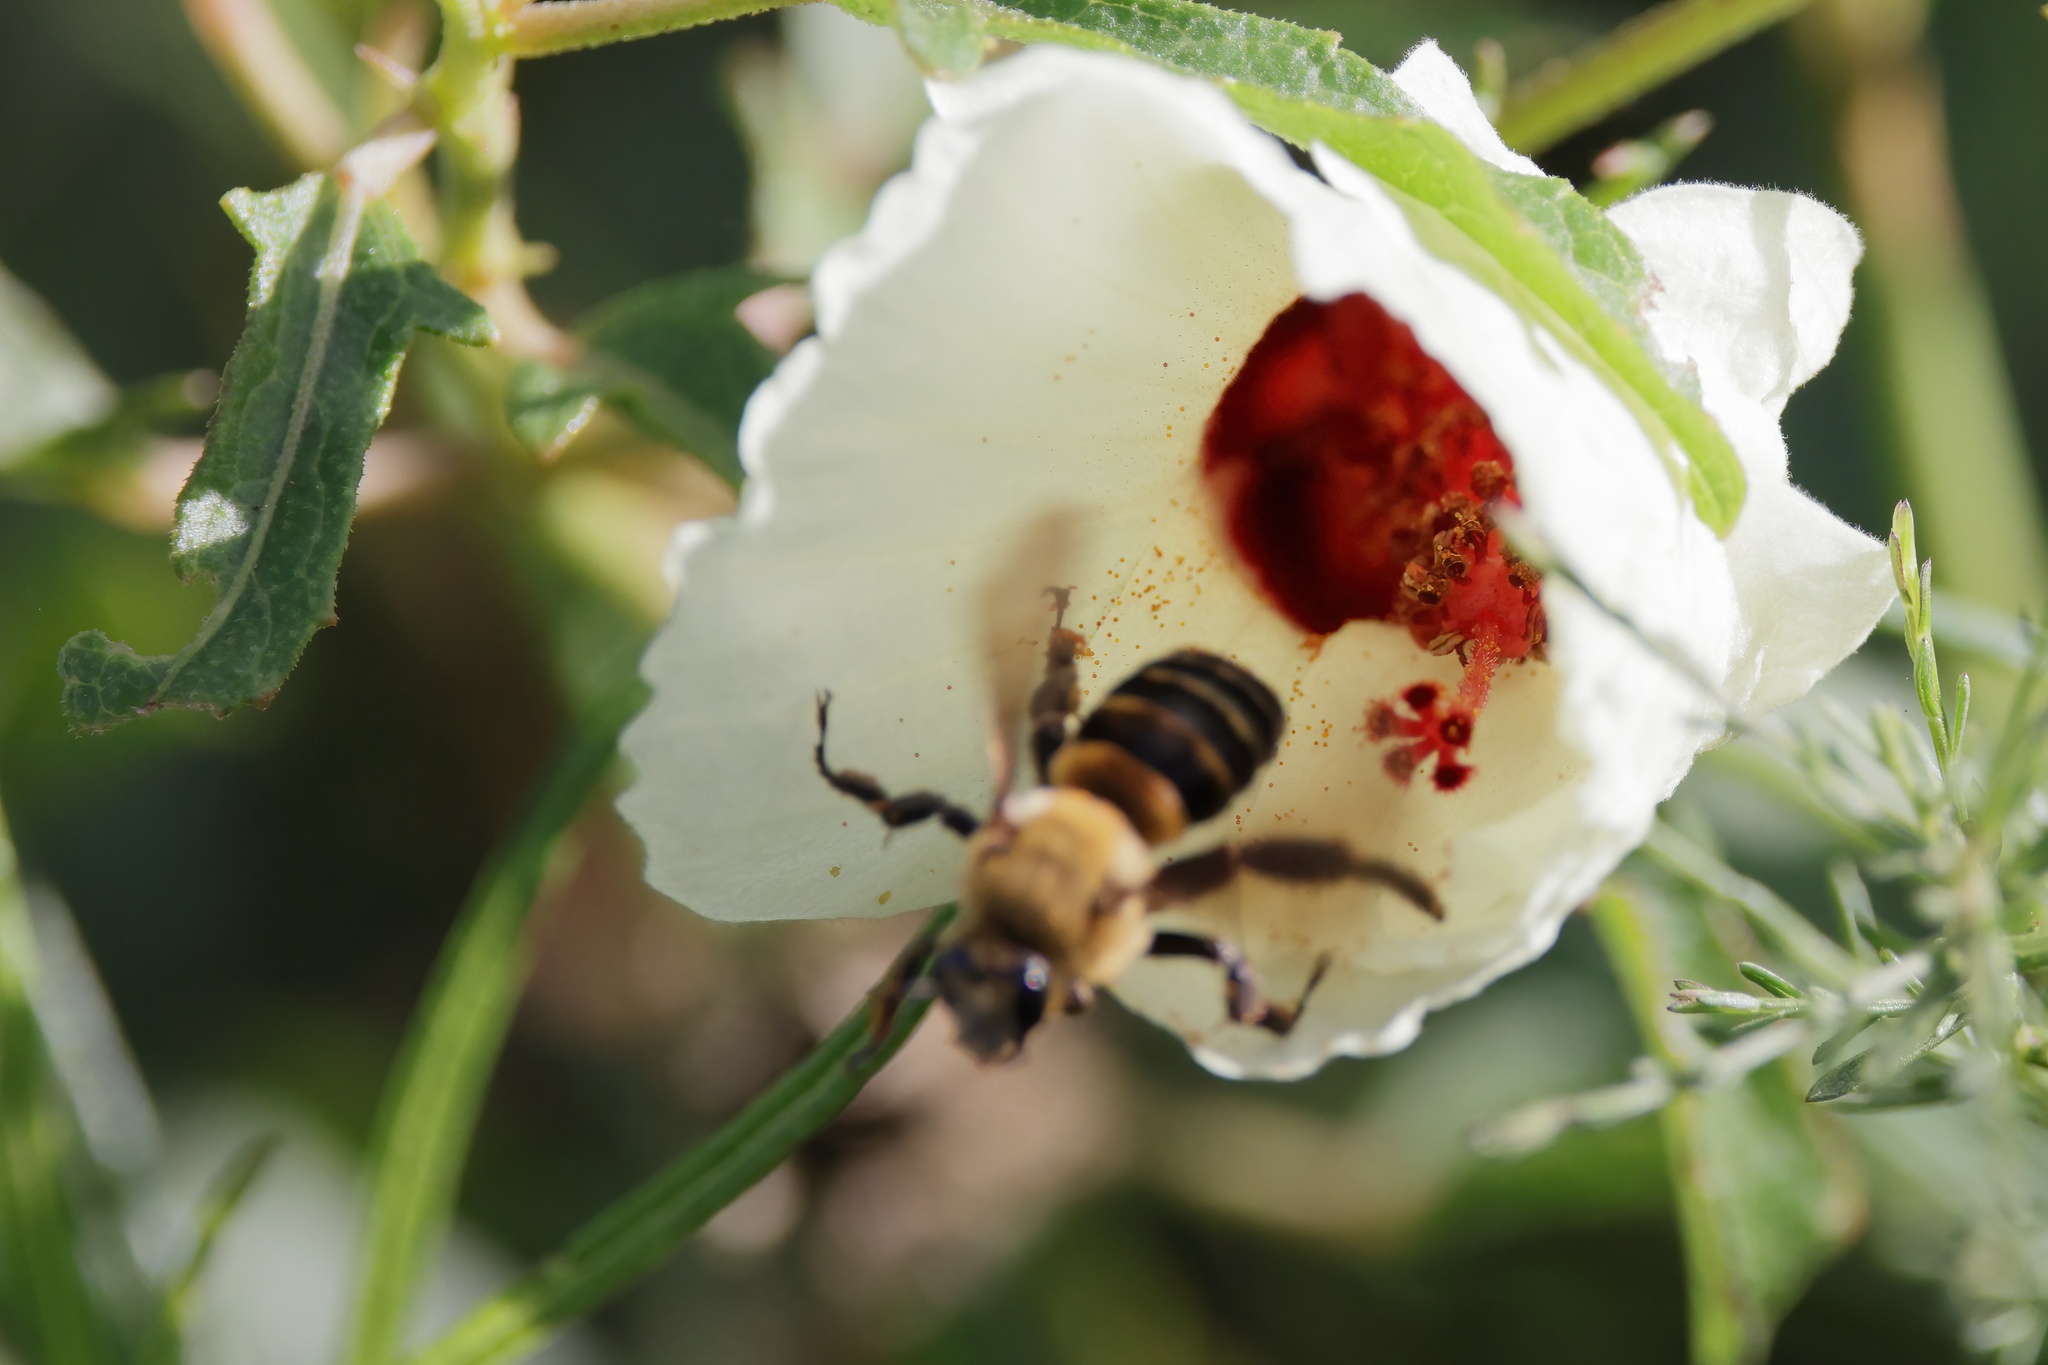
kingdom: Animalia
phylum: Arthropoda
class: Insecta
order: Hymenoptera
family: Apidae
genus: Ptilothrix
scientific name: Ptilothrix bombiformis
